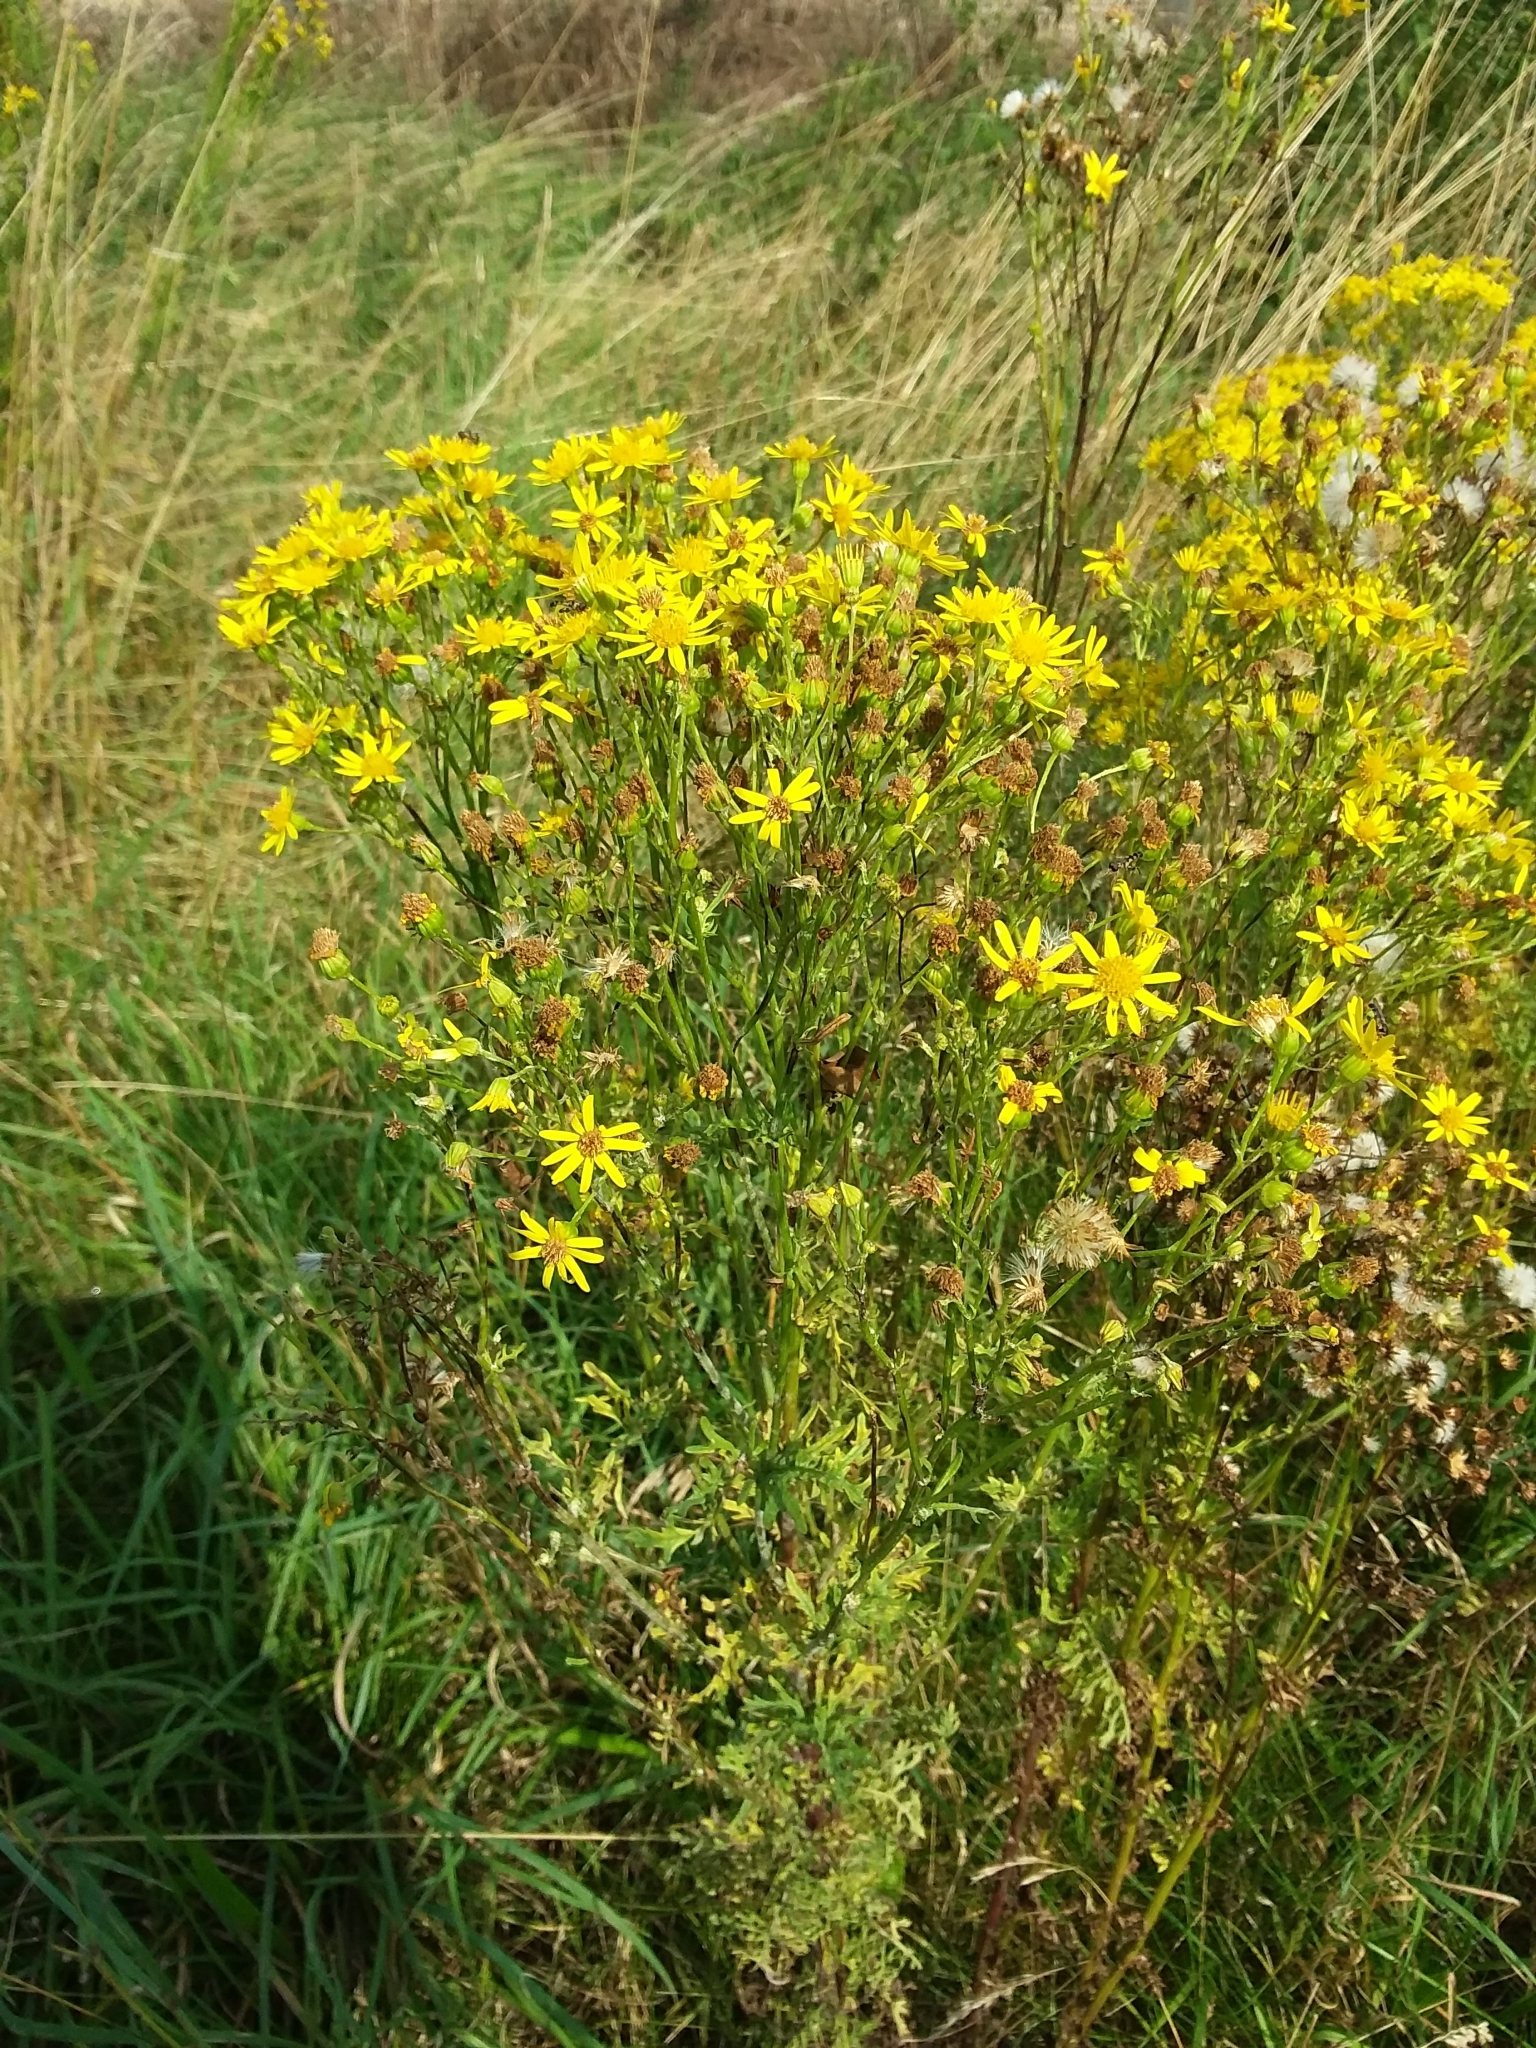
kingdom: Plantae
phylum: Tracheophyta
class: Magnoliopsida
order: Asterales
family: Asteraceae
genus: Jacobaea
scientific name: Jacobaea vulgaris
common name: Stinking willie
